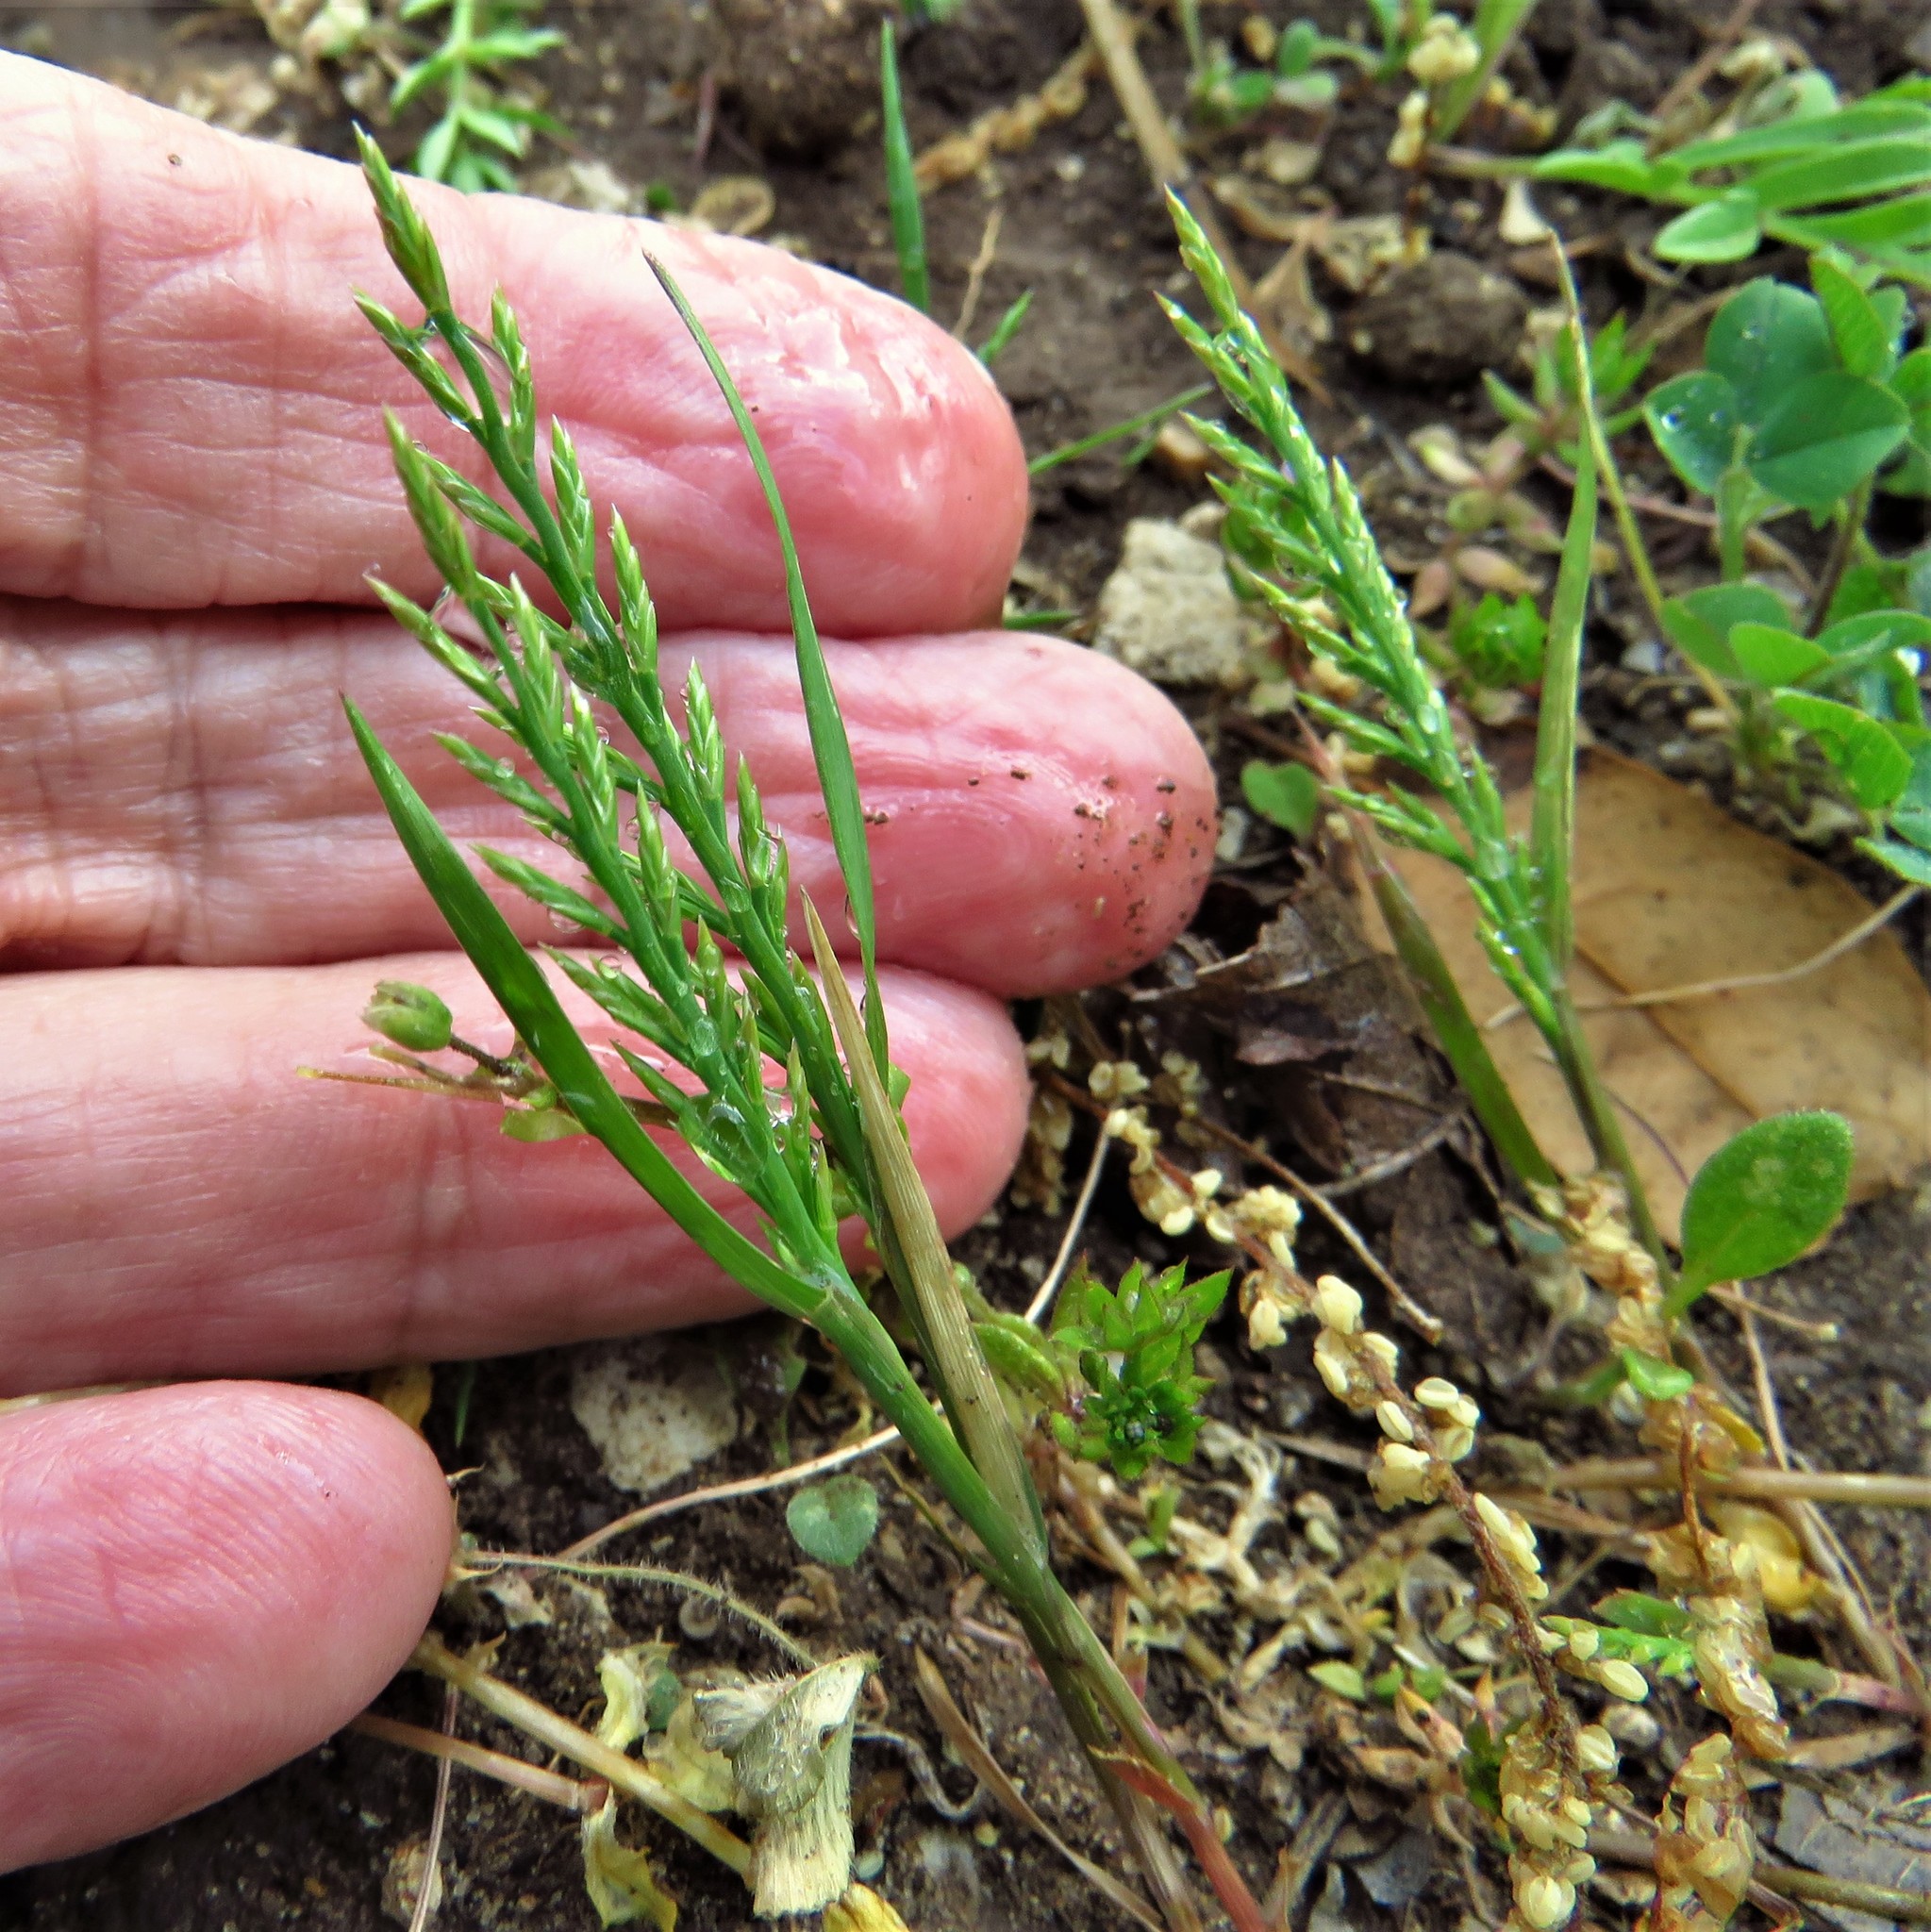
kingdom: Plantae
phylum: Tracheophyta
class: Liliopsida
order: Poales
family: Poaceae
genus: Catapodium
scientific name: Catapodium rigidum
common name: Fern-grass
